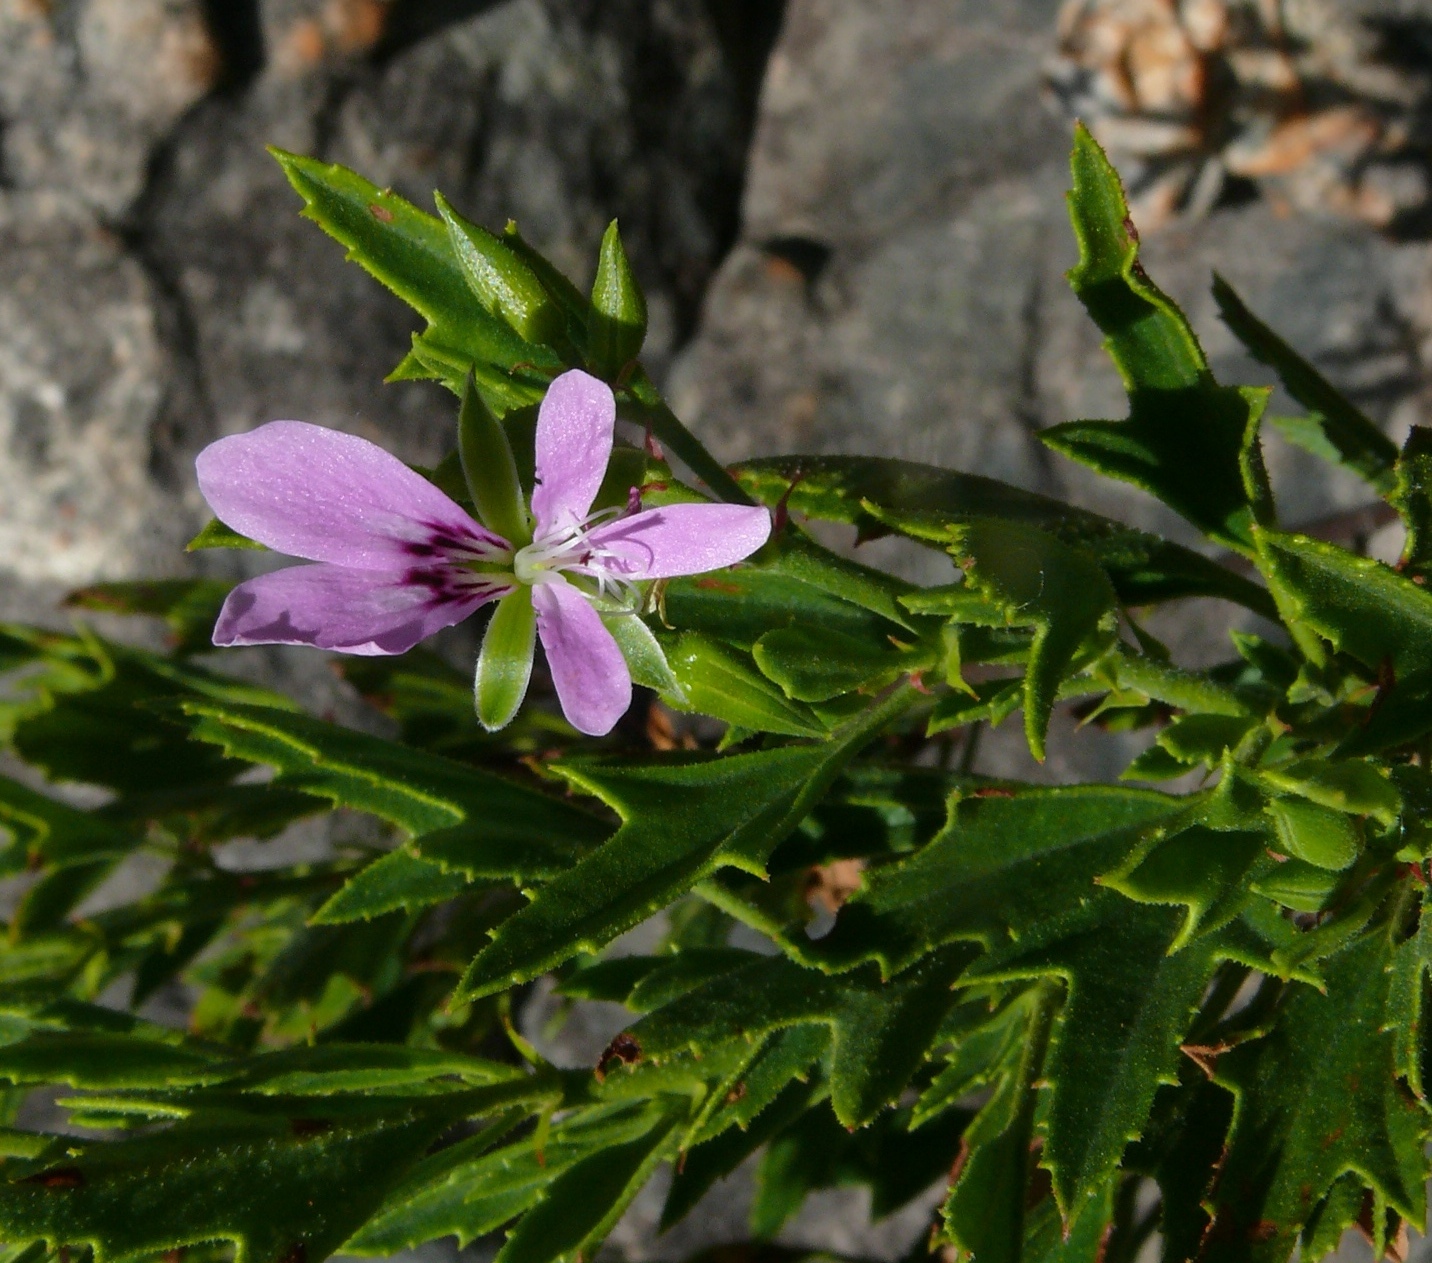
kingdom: Plantae
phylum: Tracheophyta
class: Magnoliopsida
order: Geraniales
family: Geraniaceae
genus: Pelargonium
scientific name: Pelargonium scabrum
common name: Apricot geranium
